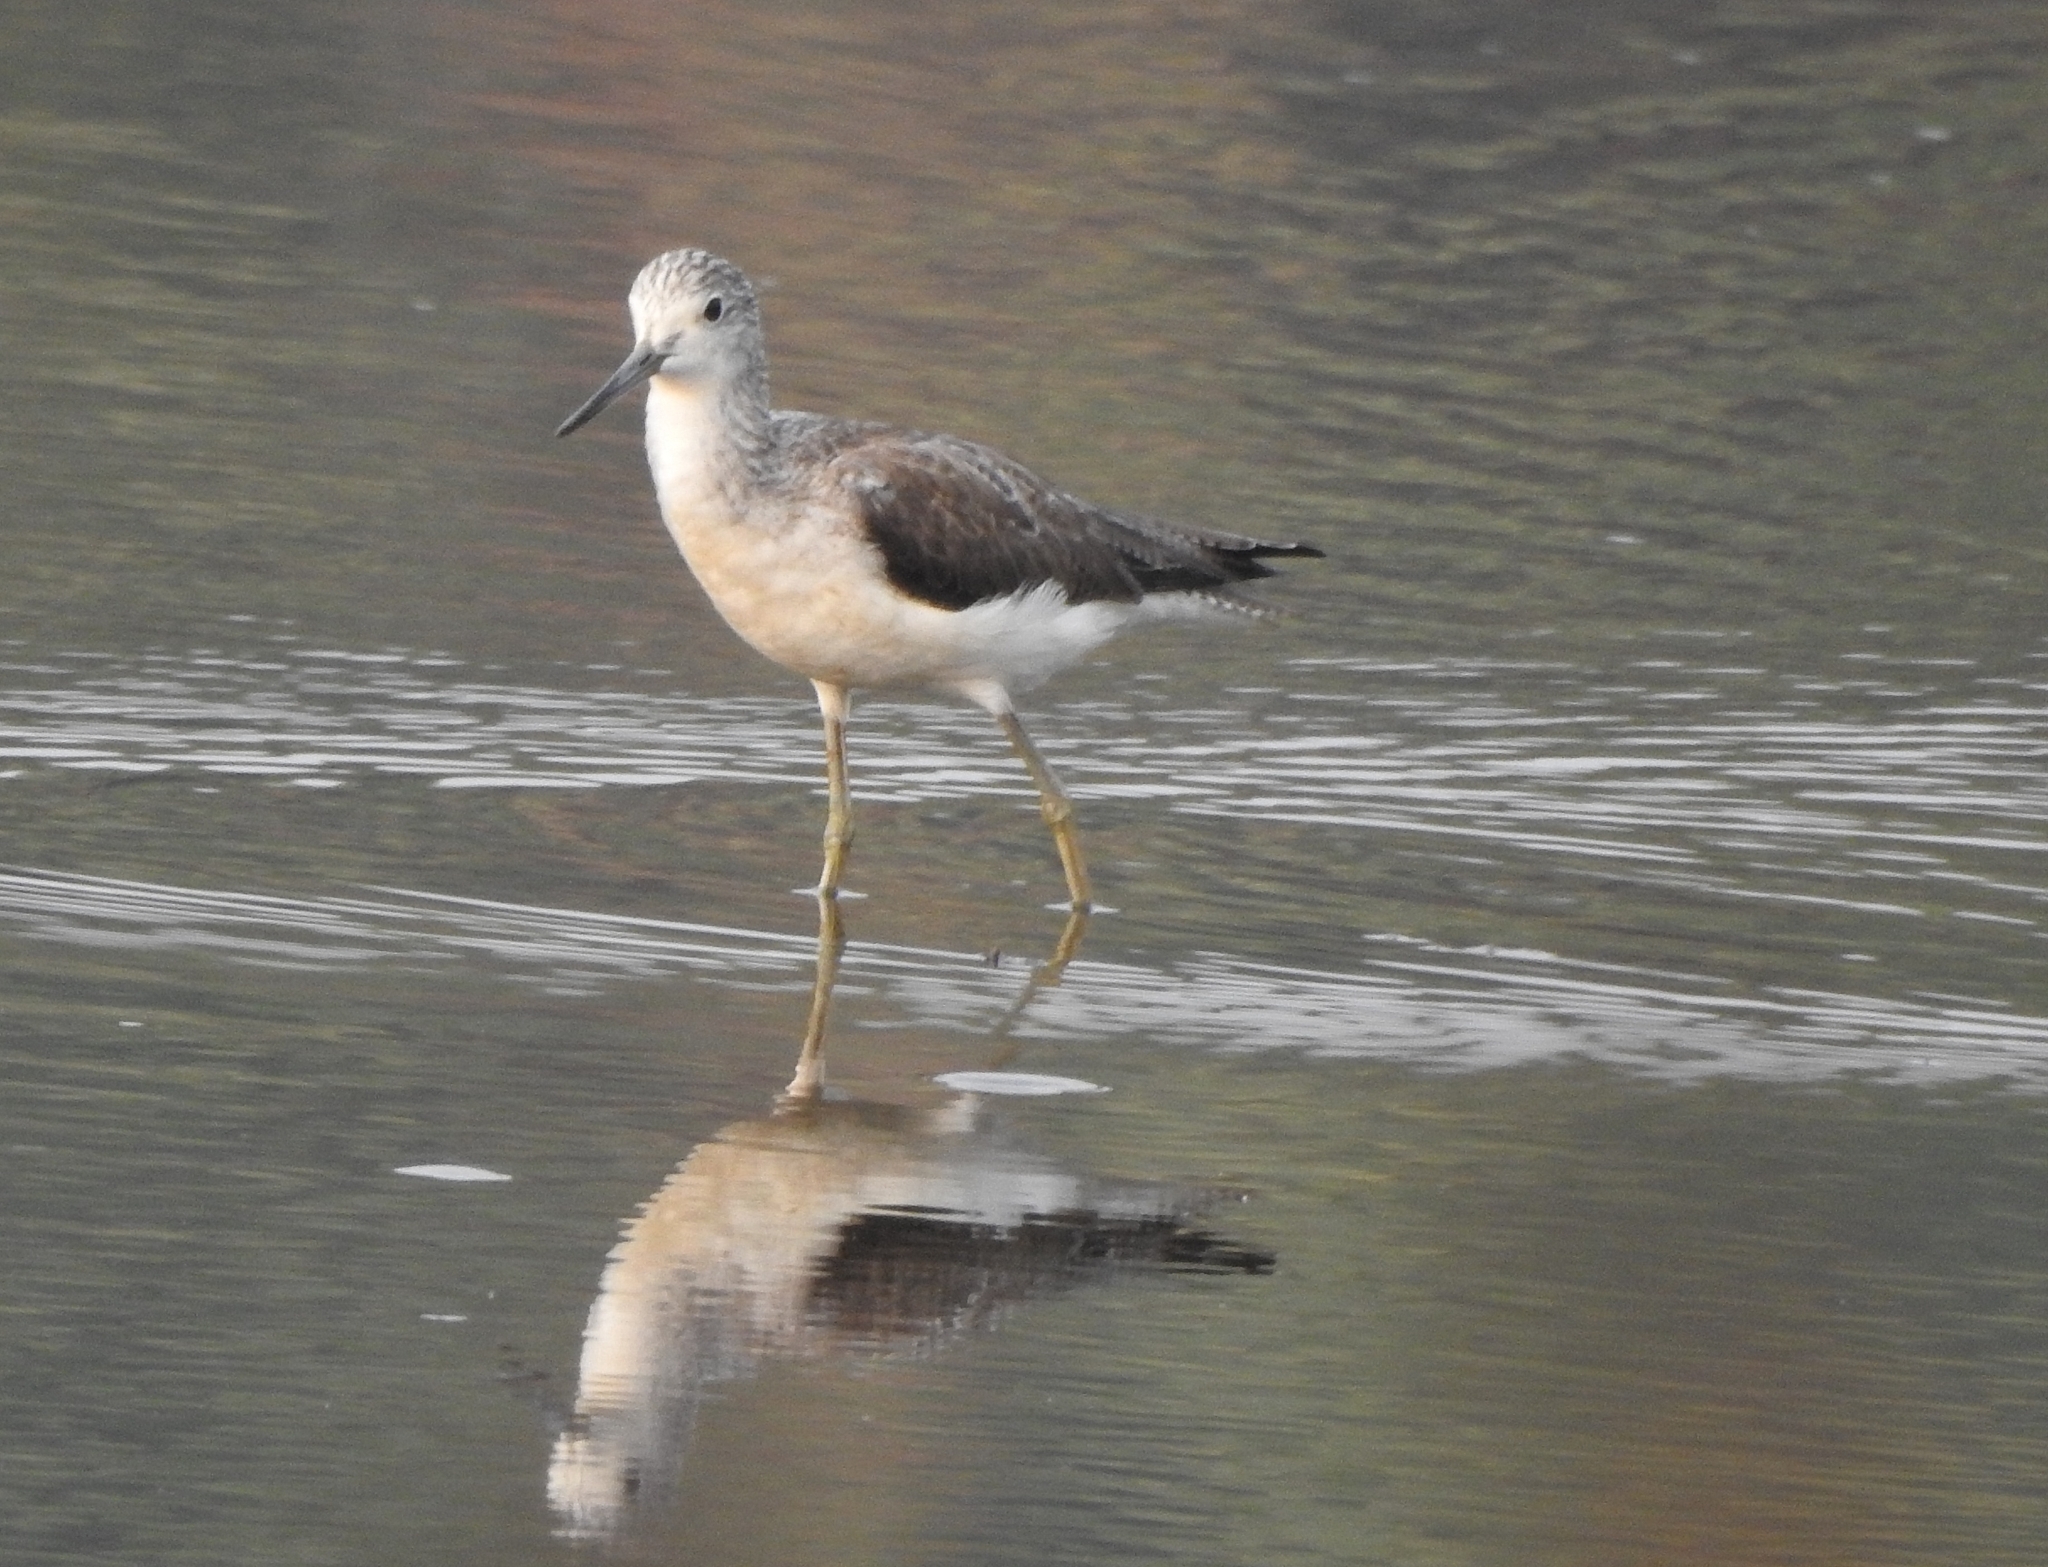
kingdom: Animalia
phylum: Chordata
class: Aves
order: Charadriiformes
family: Scolopacidae
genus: Tringa
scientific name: Tringa nebularia
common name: Common greenshank
